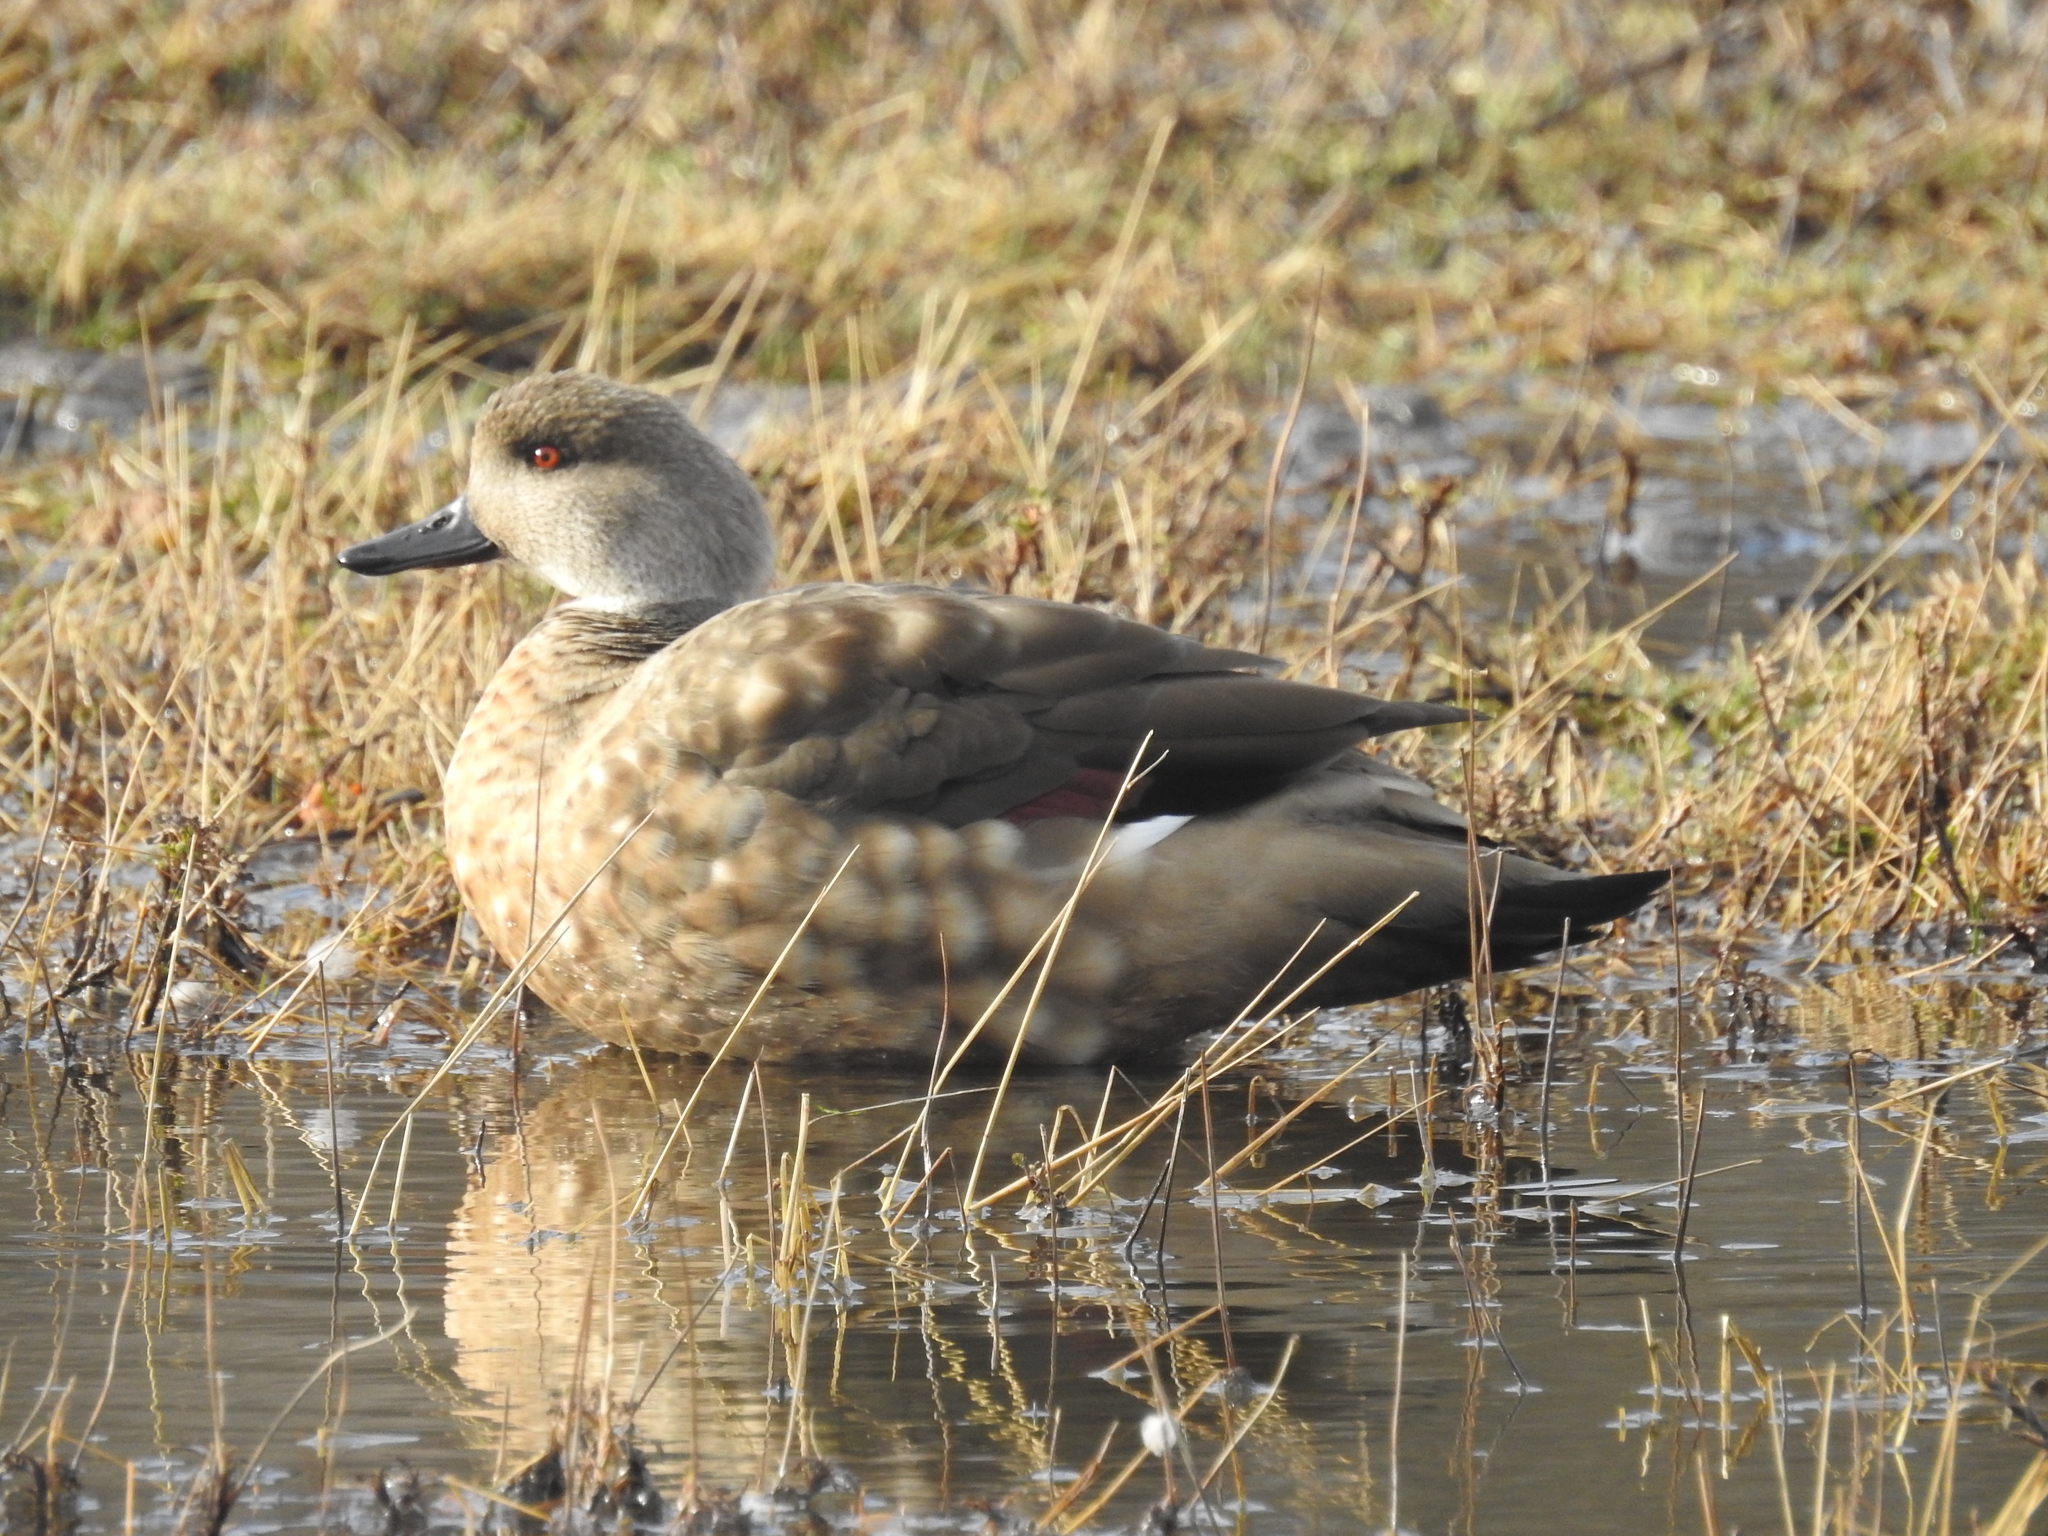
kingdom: Animalia
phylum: Chordata
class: Aves
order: Anseriformes
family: Anatidae
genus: Lophonetta
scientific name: Lophonetta specularioides
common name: Crested duck
